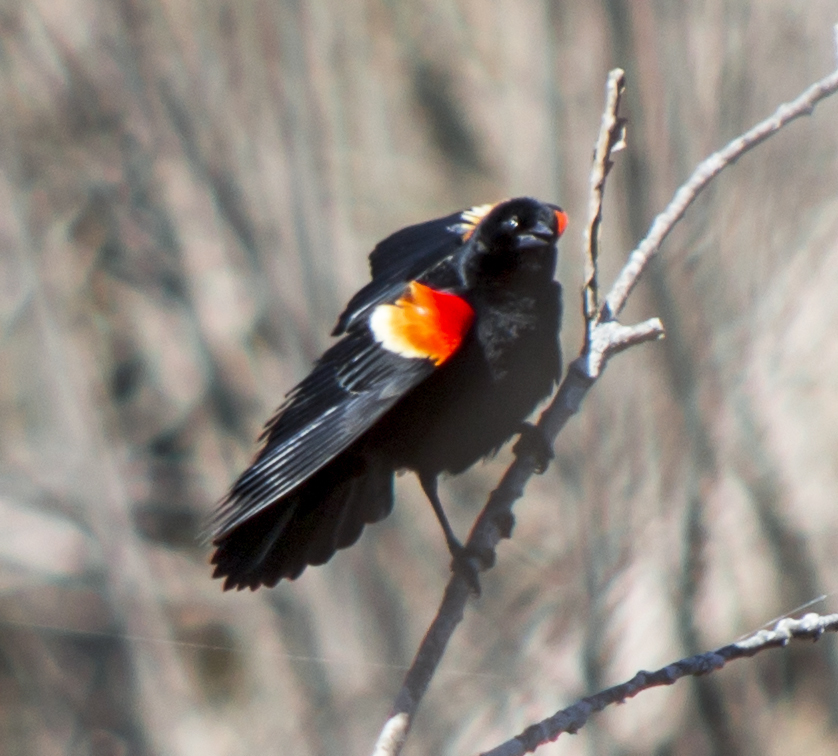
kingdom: Animalia
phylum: Chordata
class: Aves
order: Passeriformes
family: Icteridae
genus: Agelaius
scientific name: Agelaius phoeniceus
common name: Red-winged blackbird
